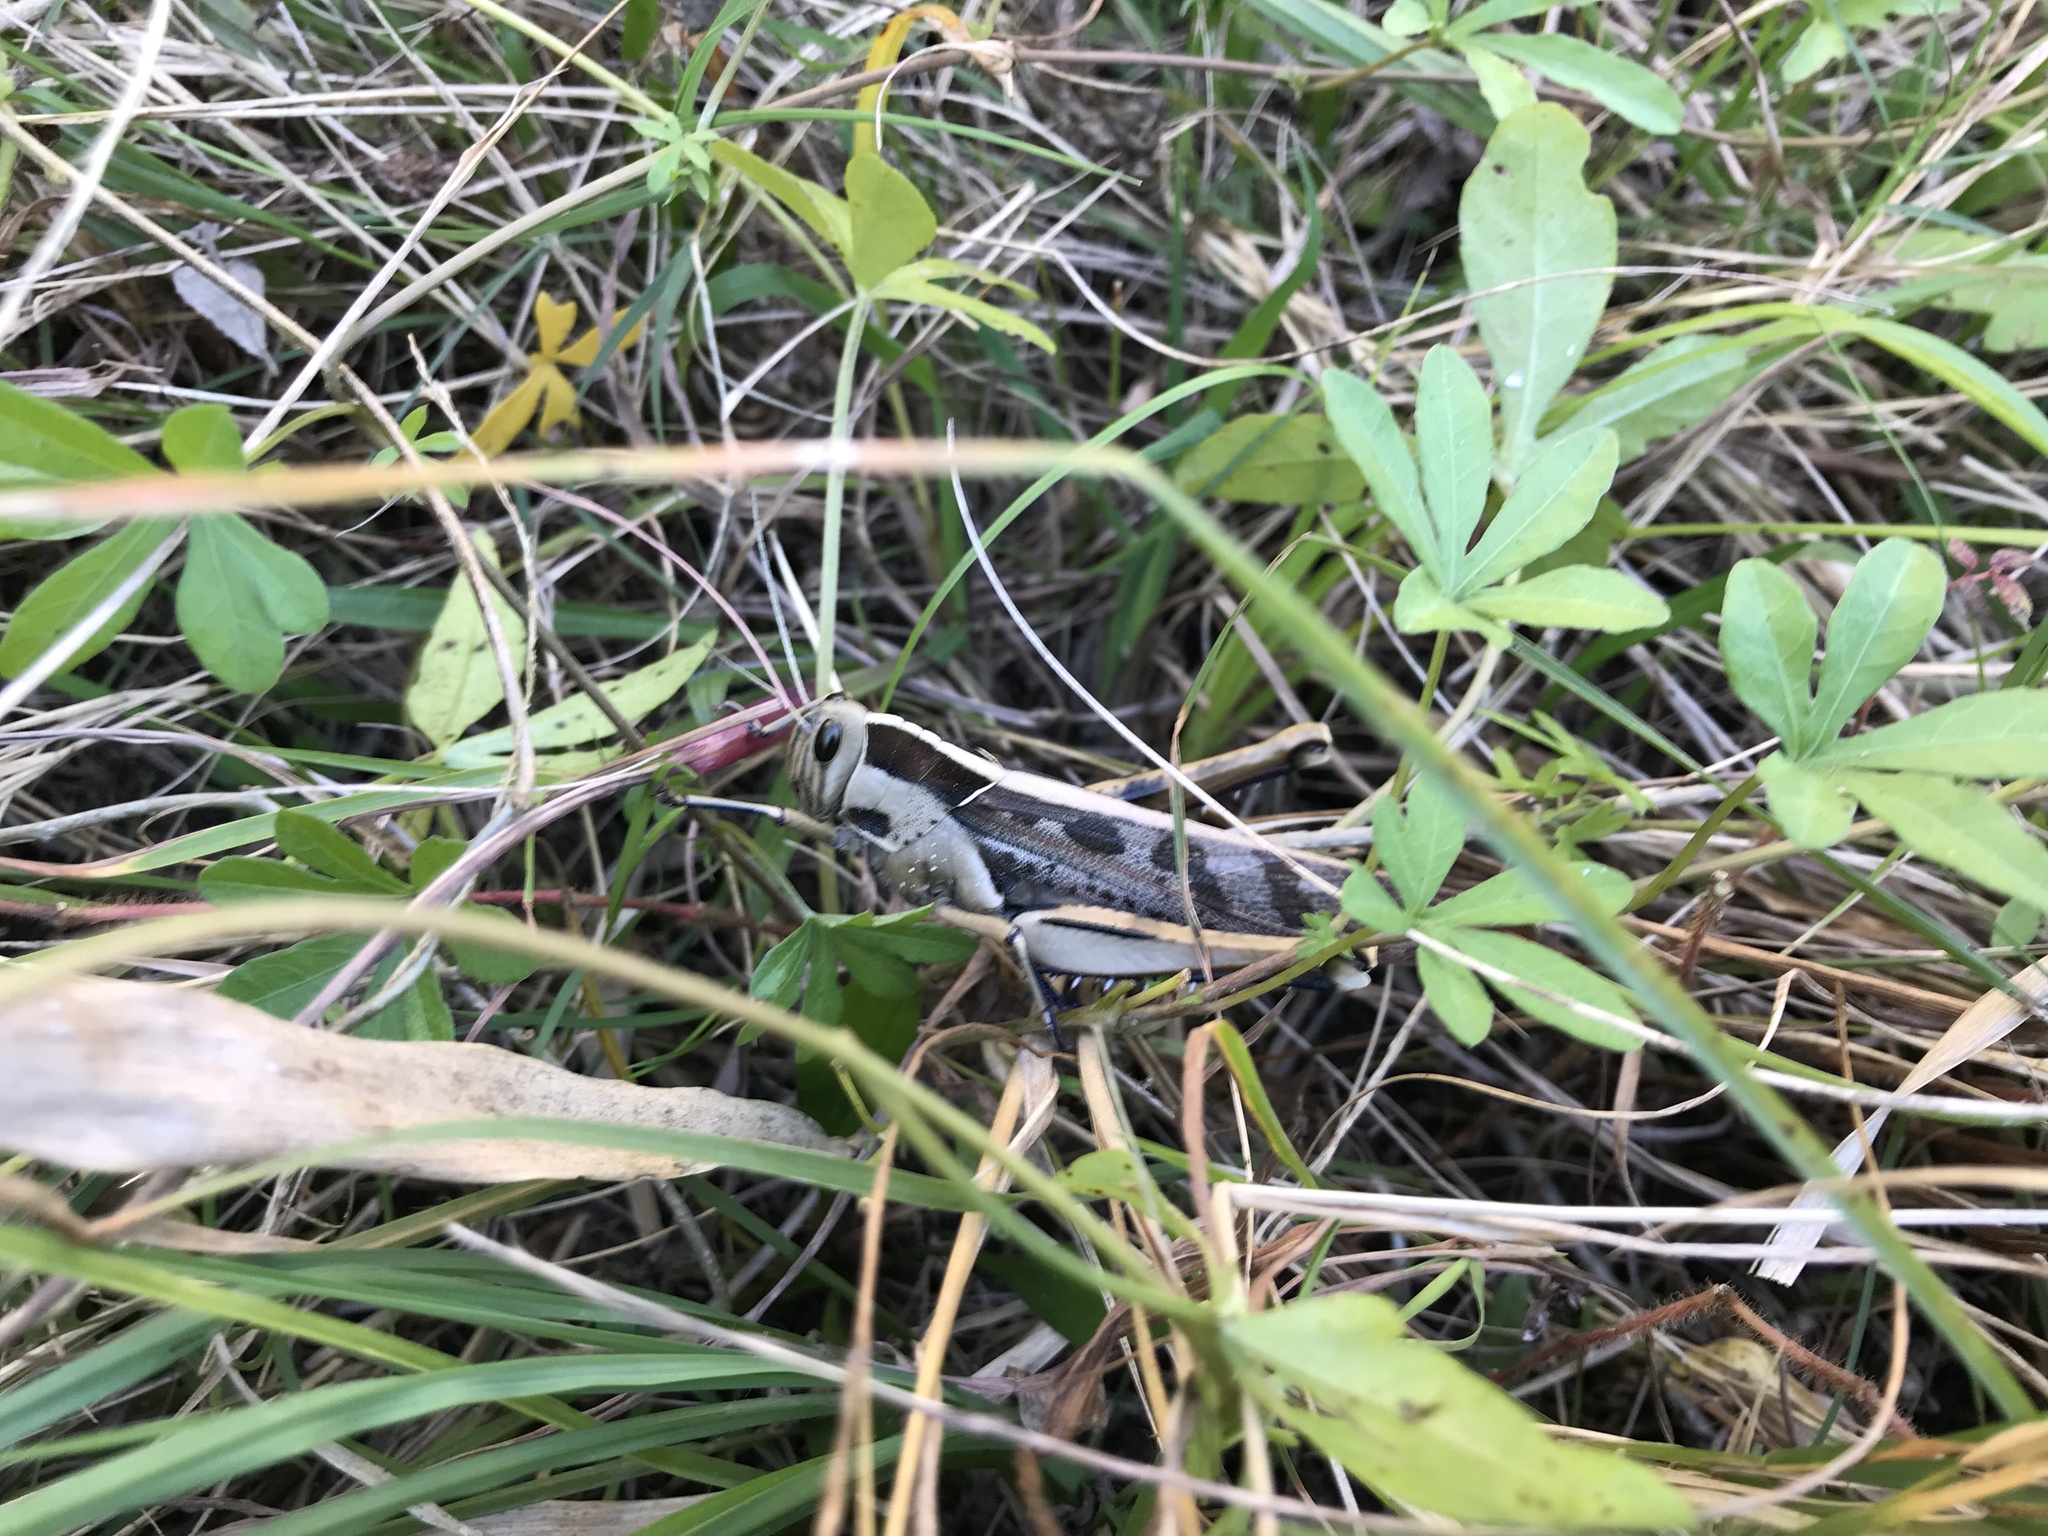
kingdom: Animalia
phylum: Arthropoda
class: Insecta
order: Orthoptera
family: Acrididae
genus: Acanthacris
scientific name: Acanthacris ruficornis
